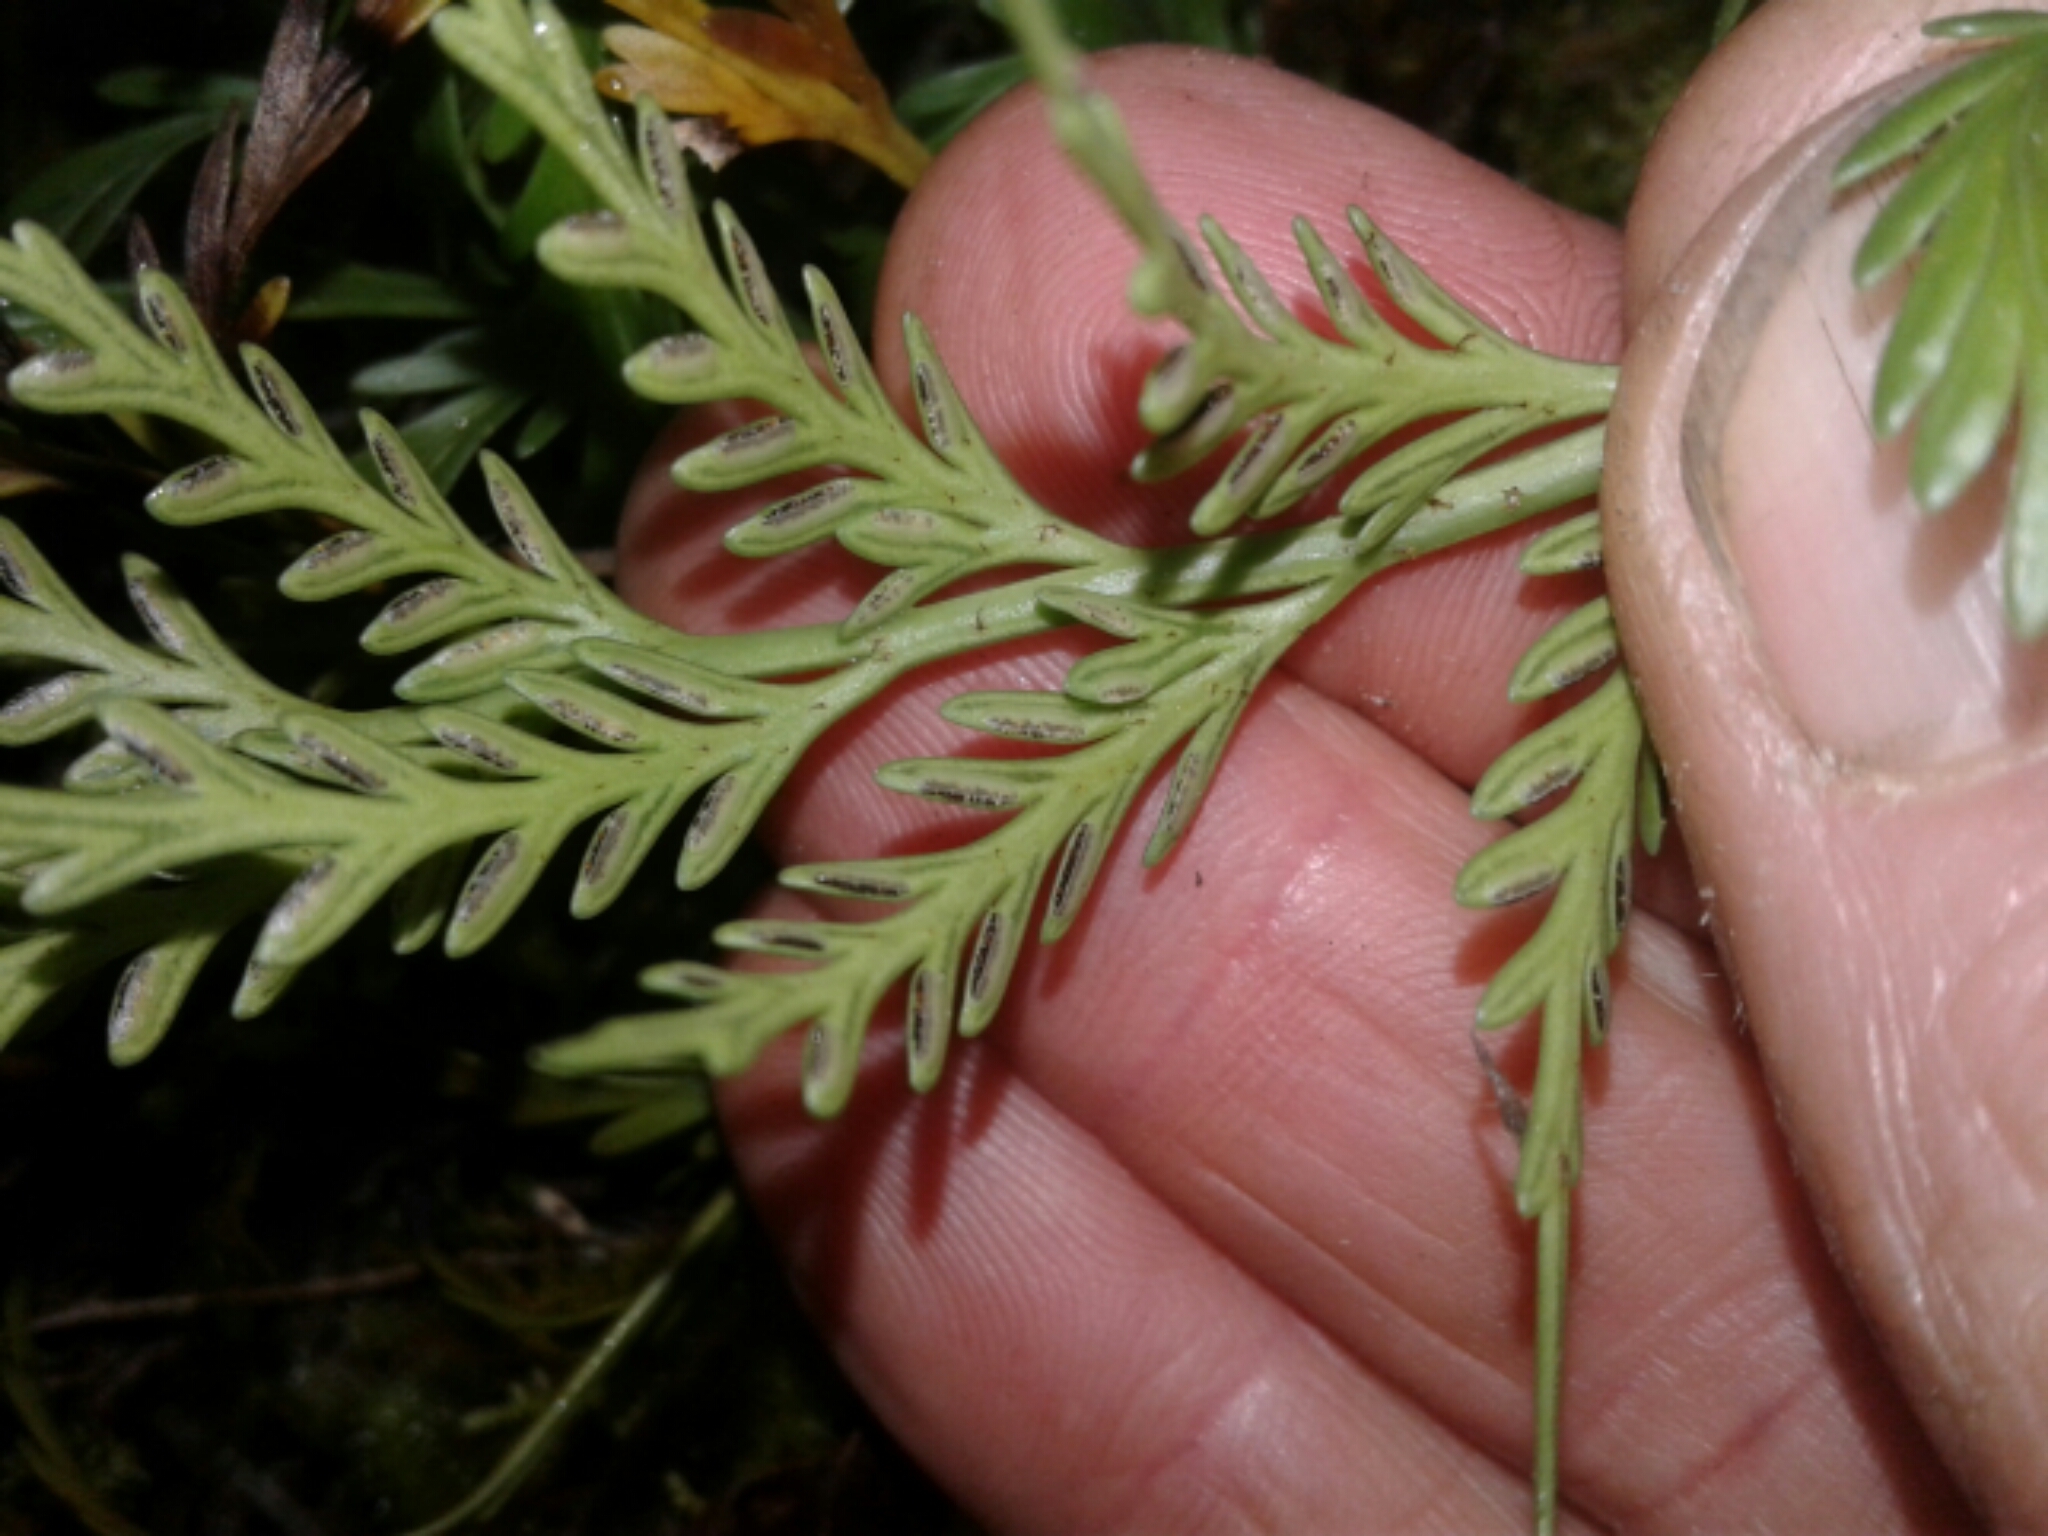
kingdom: Plantae
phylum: Tracheophyta
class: Polypodiopsida
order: Polypodiales
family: Aspleniaceae
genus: Asplenium
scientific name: Asplenium flaccidum
